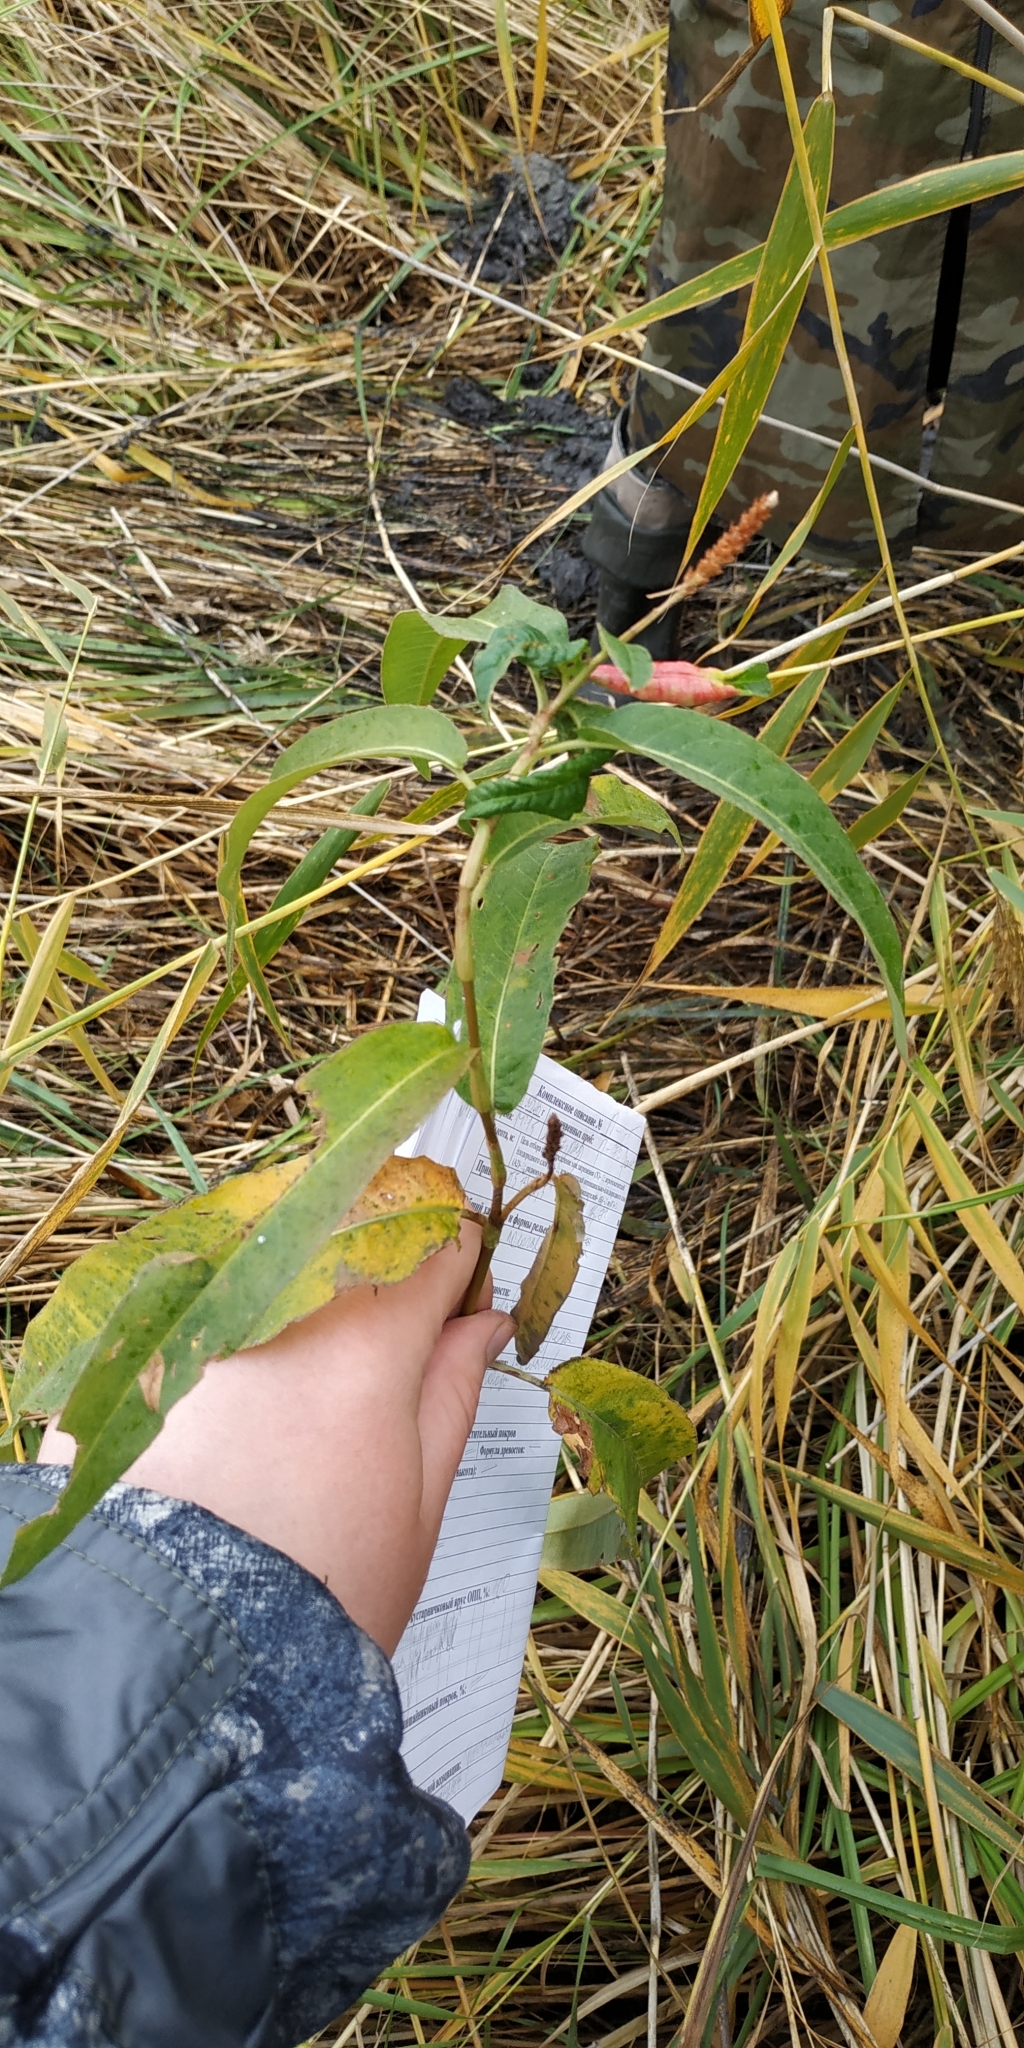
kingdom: Plantae
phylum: Tracheophyta
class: Magnoliopsida
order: Caryophyllales
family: Polygonaceae
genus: Persicaria
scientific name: Persicaria amphibia
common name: Amphibious bistort
